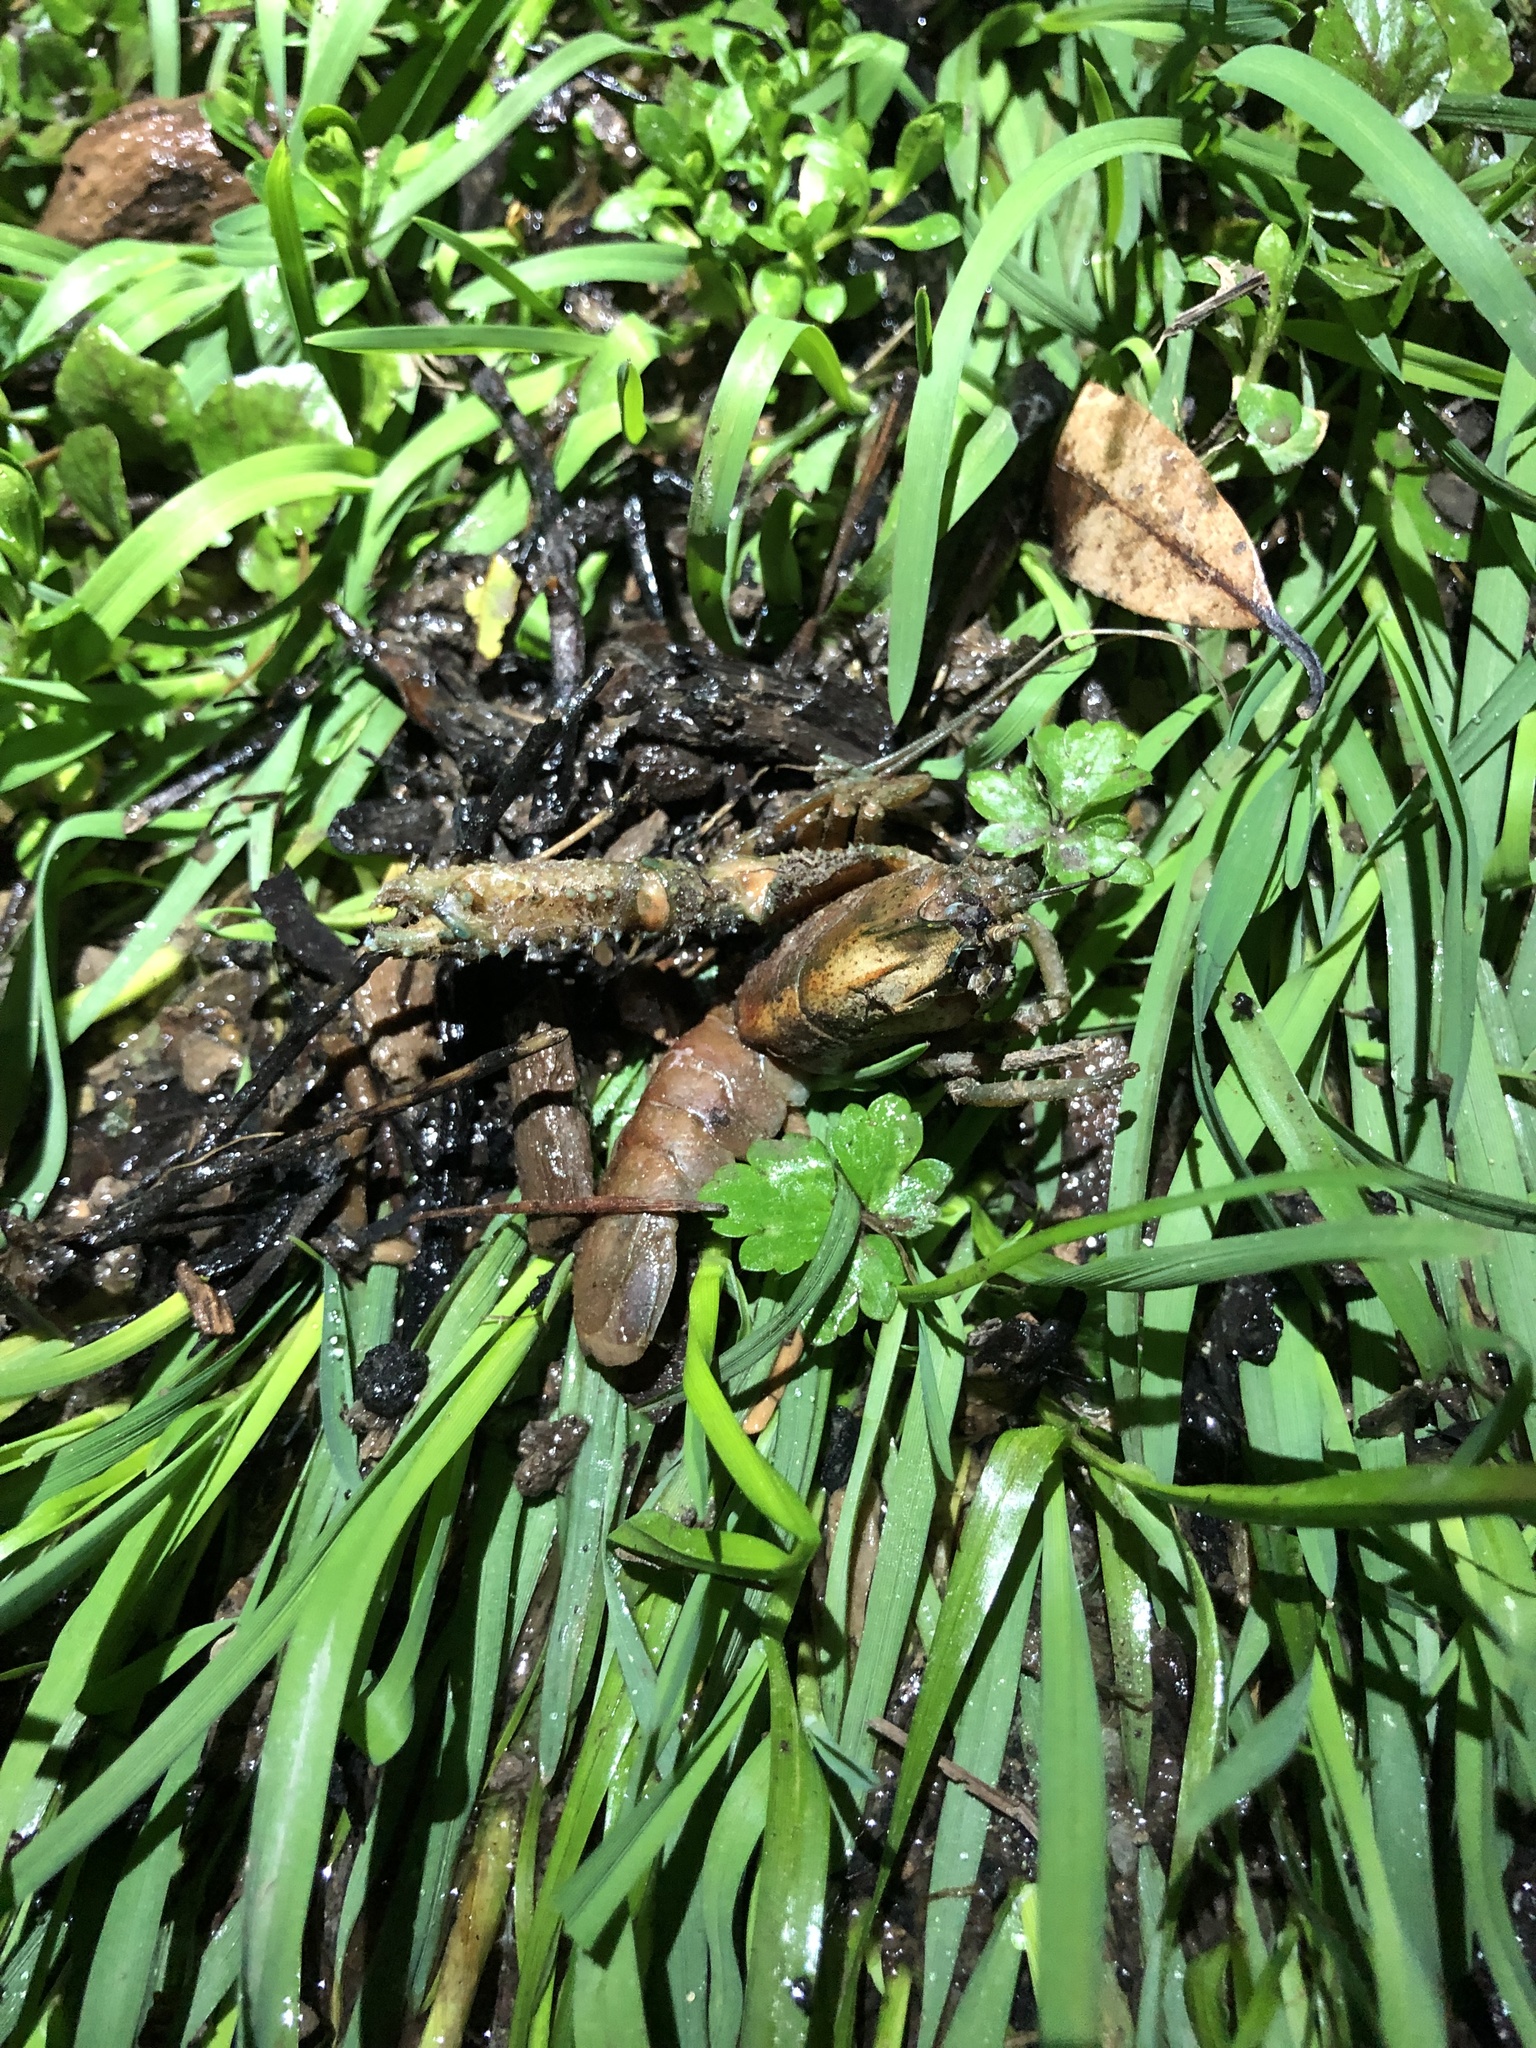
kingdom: Animalia
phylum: Arthropoda
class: Malacostraca
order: Decapoda
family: Parastacidae
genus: Paranephrops
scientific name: Paranephrops planifrons
